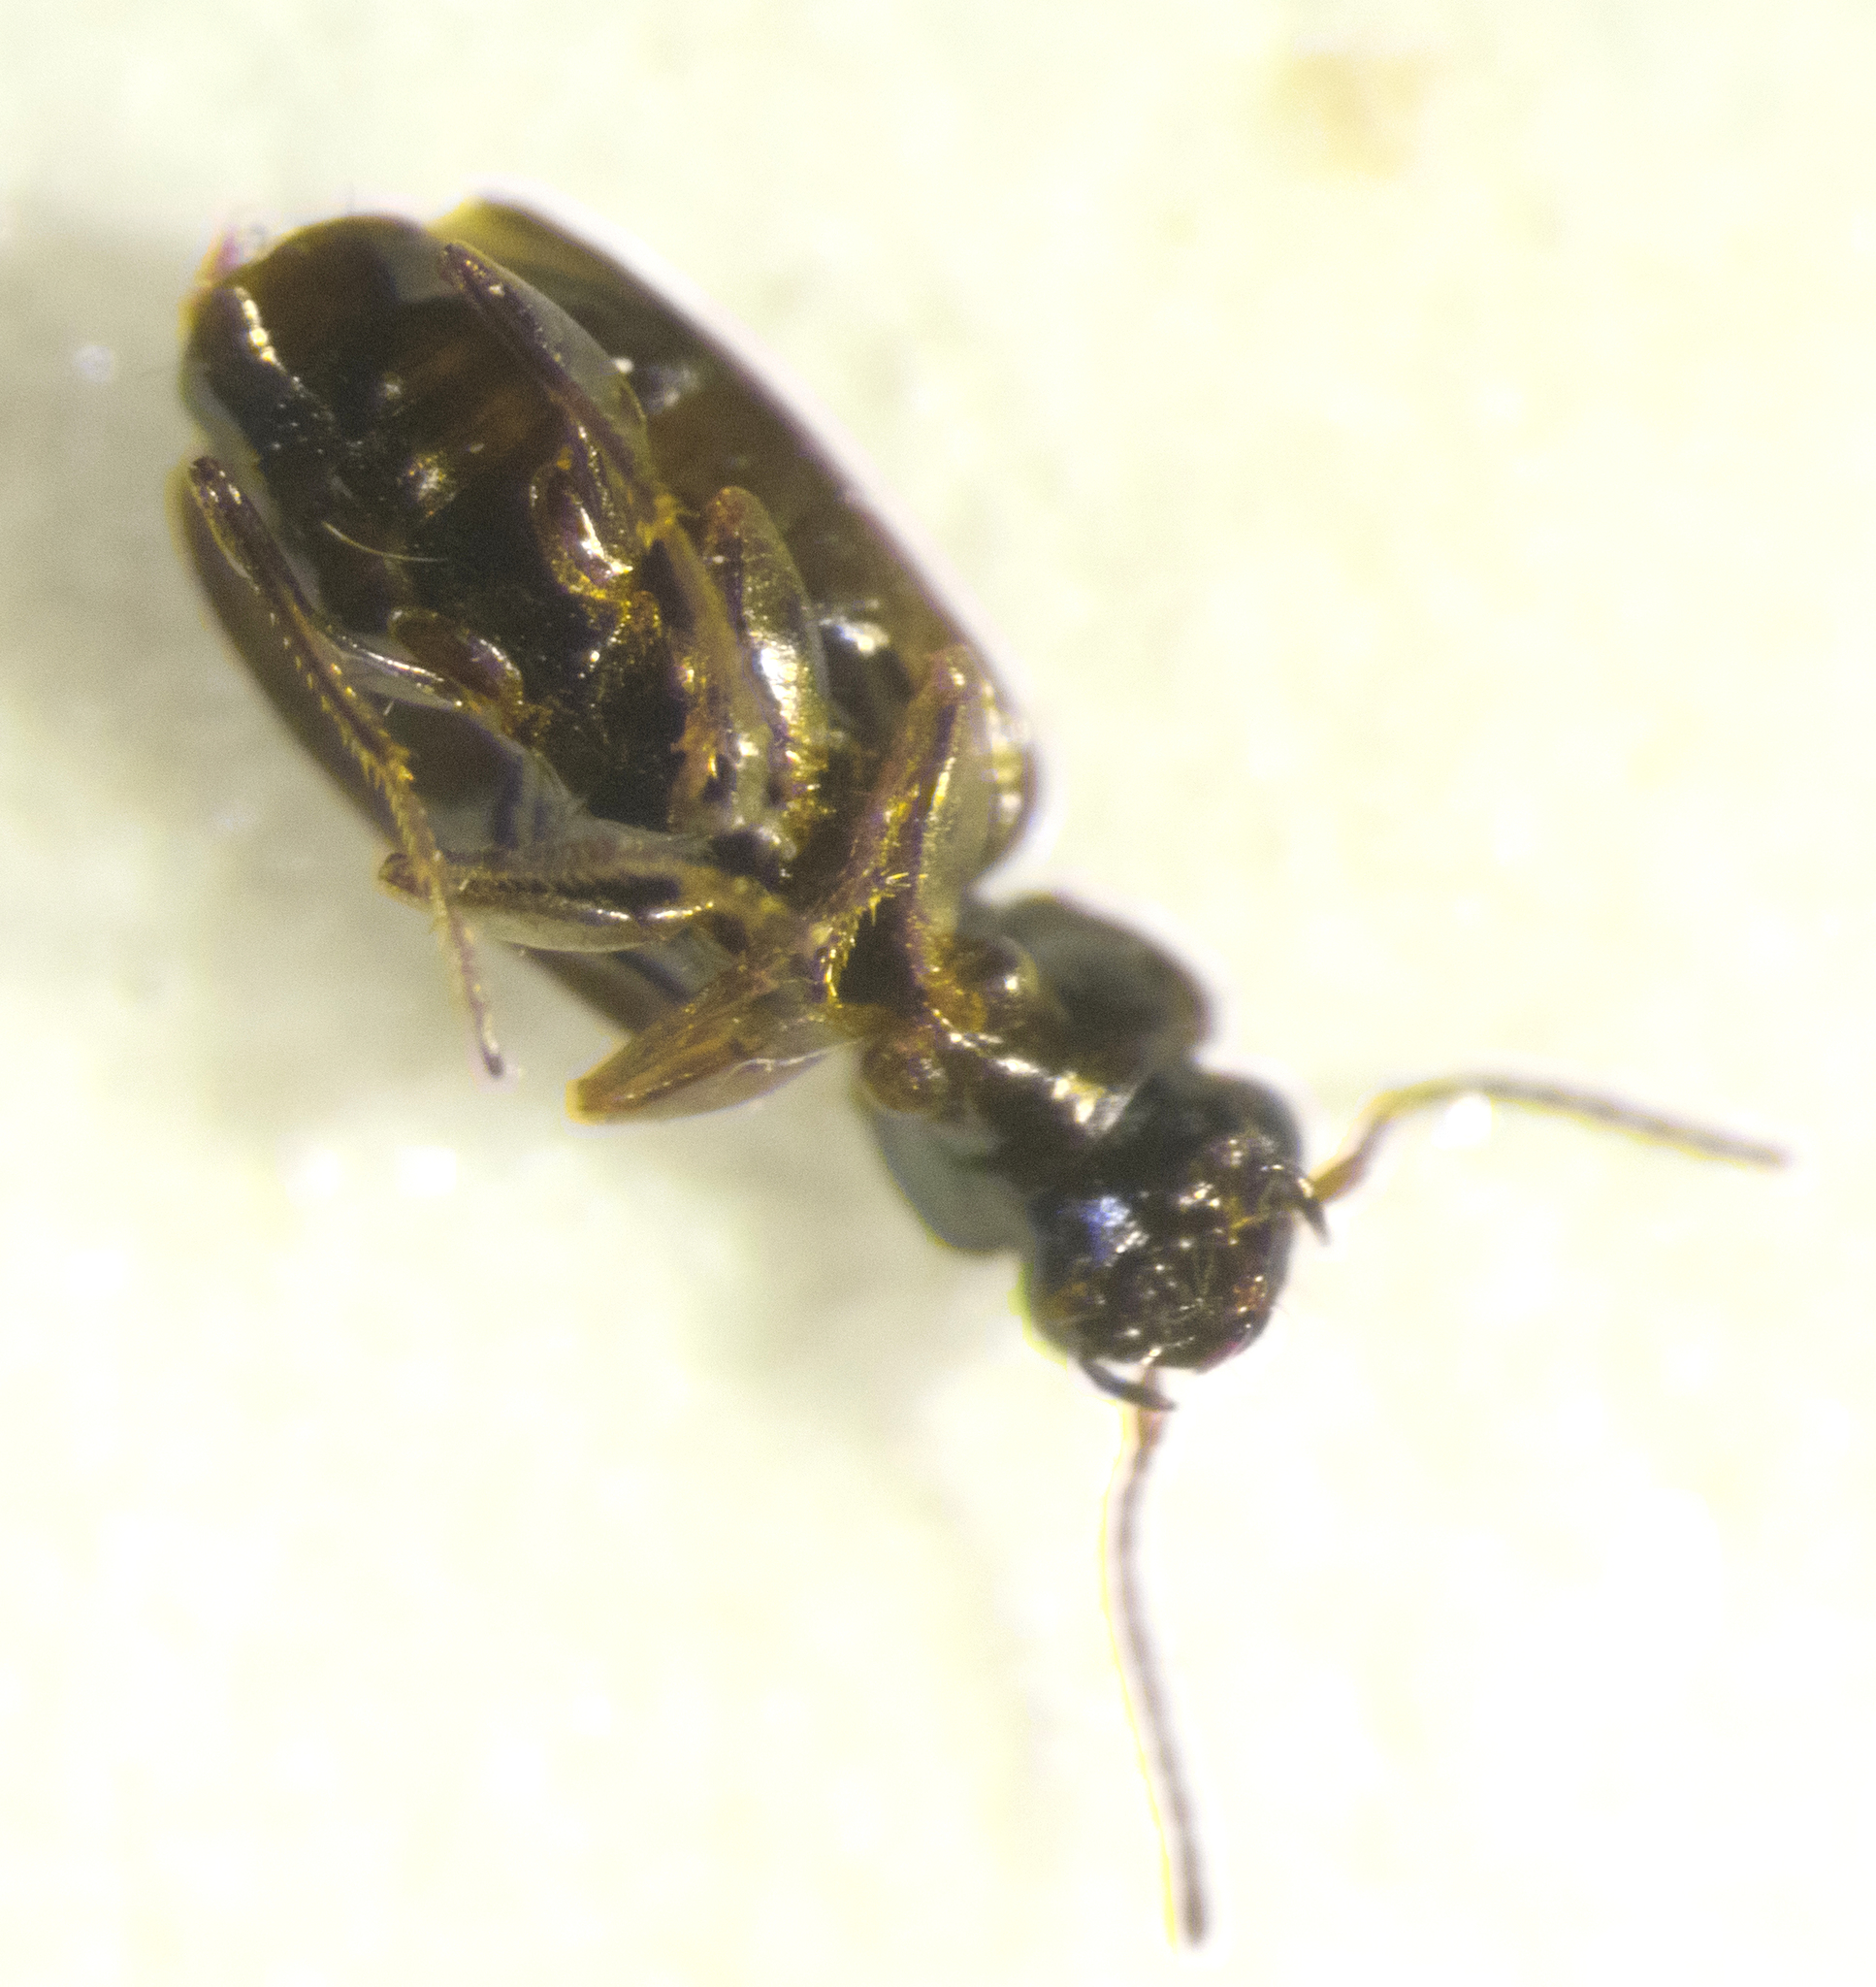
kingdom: Animalia
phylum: Arthropoda
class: Insecta
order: Coleoptera
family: Carabidae
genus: Syntomus
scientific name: Syntomus pallipes
